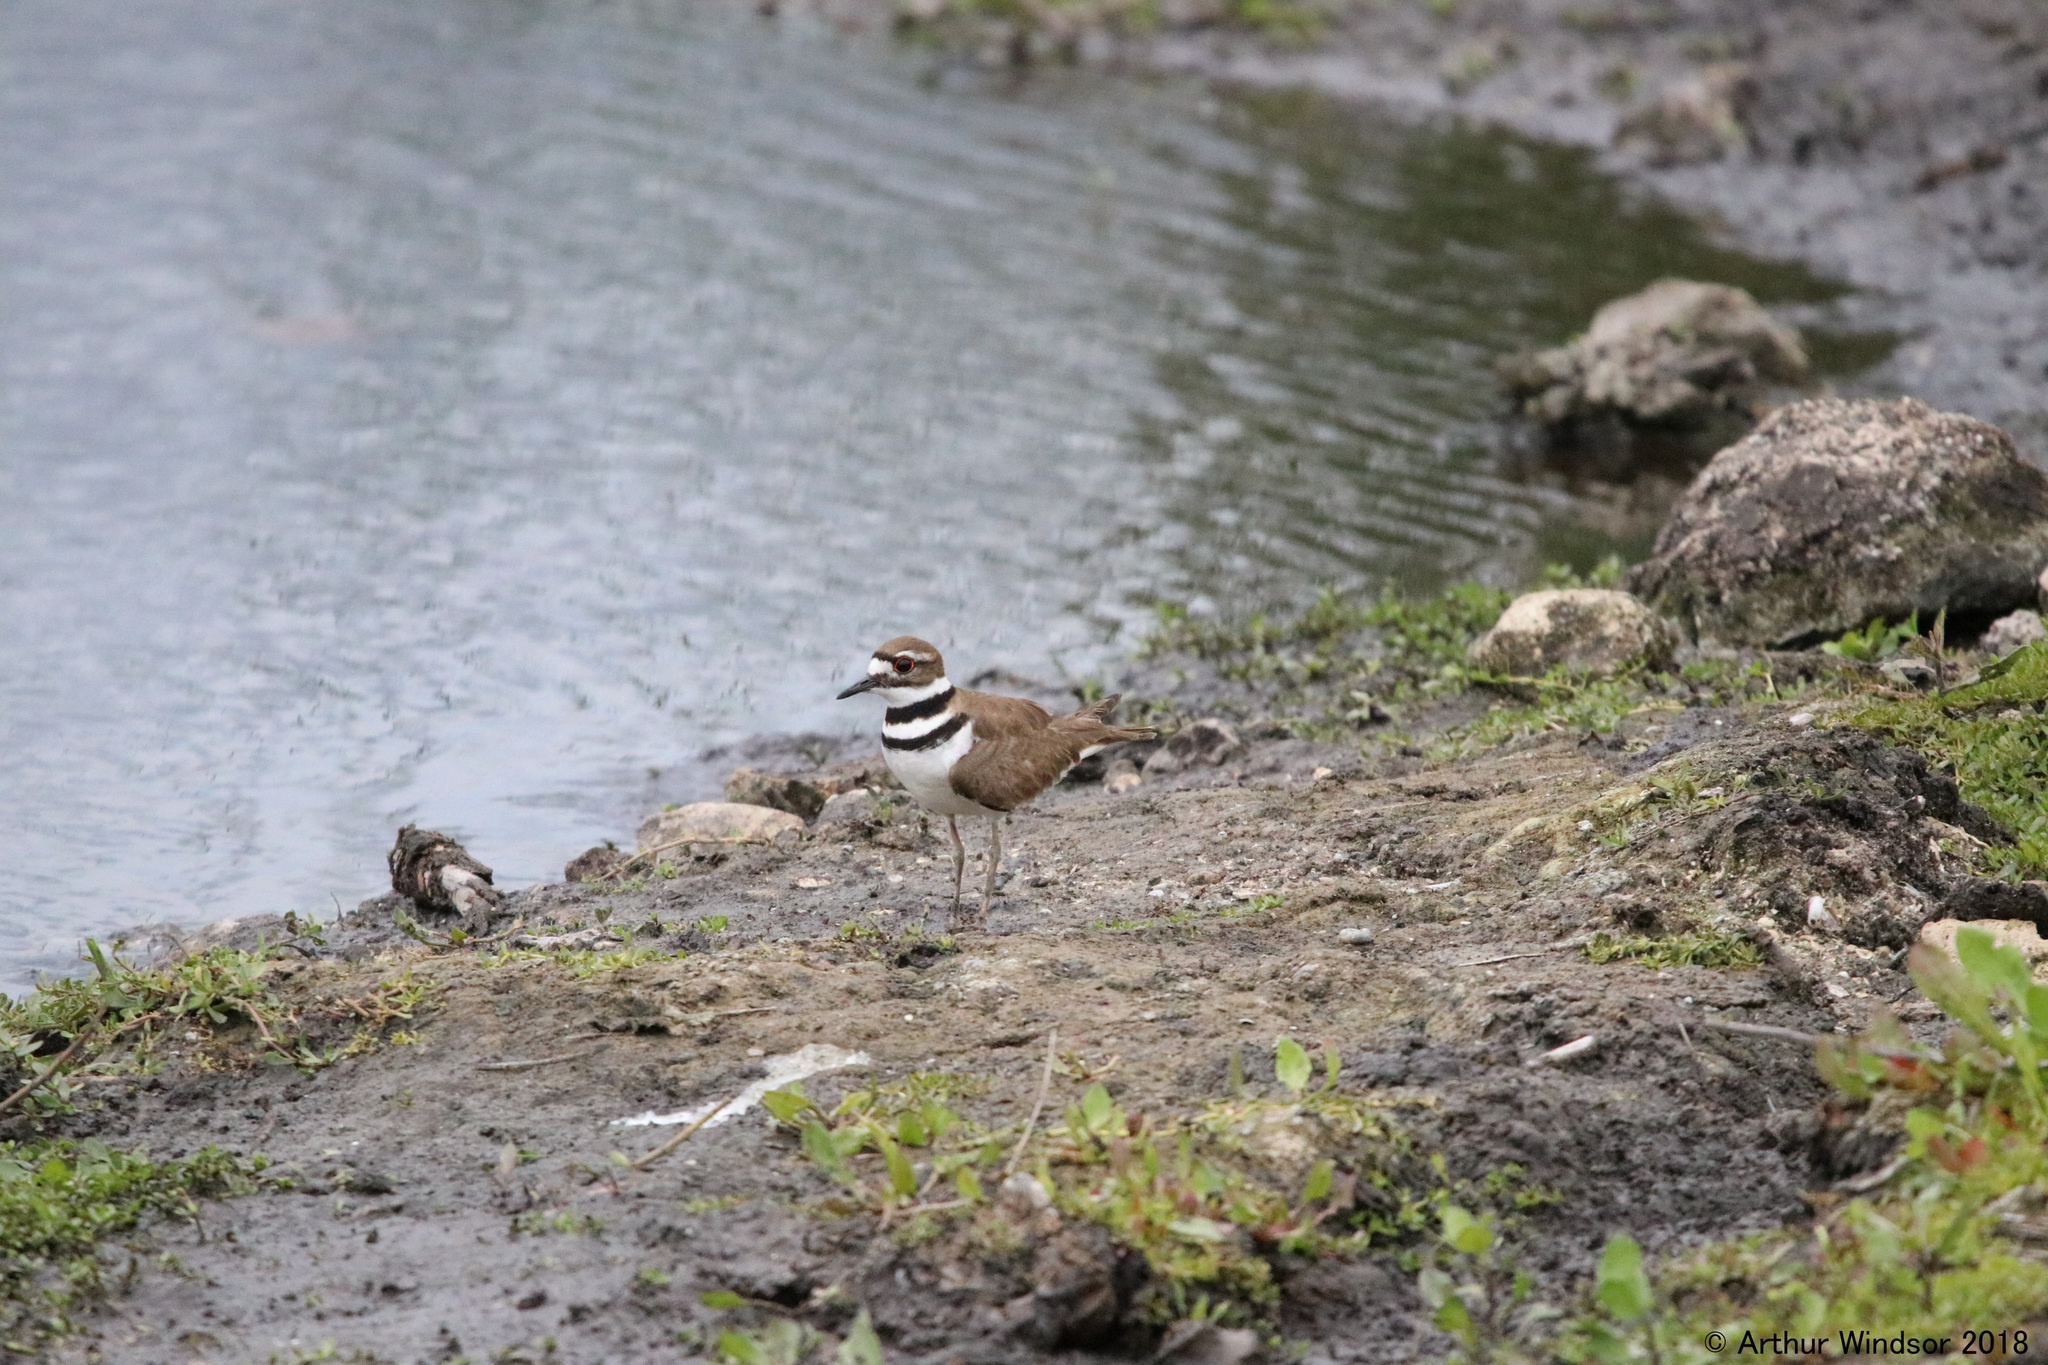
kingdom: Animalia
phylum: Chordata
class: Aves
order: Charadriiformes
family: Charadriidae
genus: Charadrius
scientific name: Charadrius vociferus
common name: Killdeer
